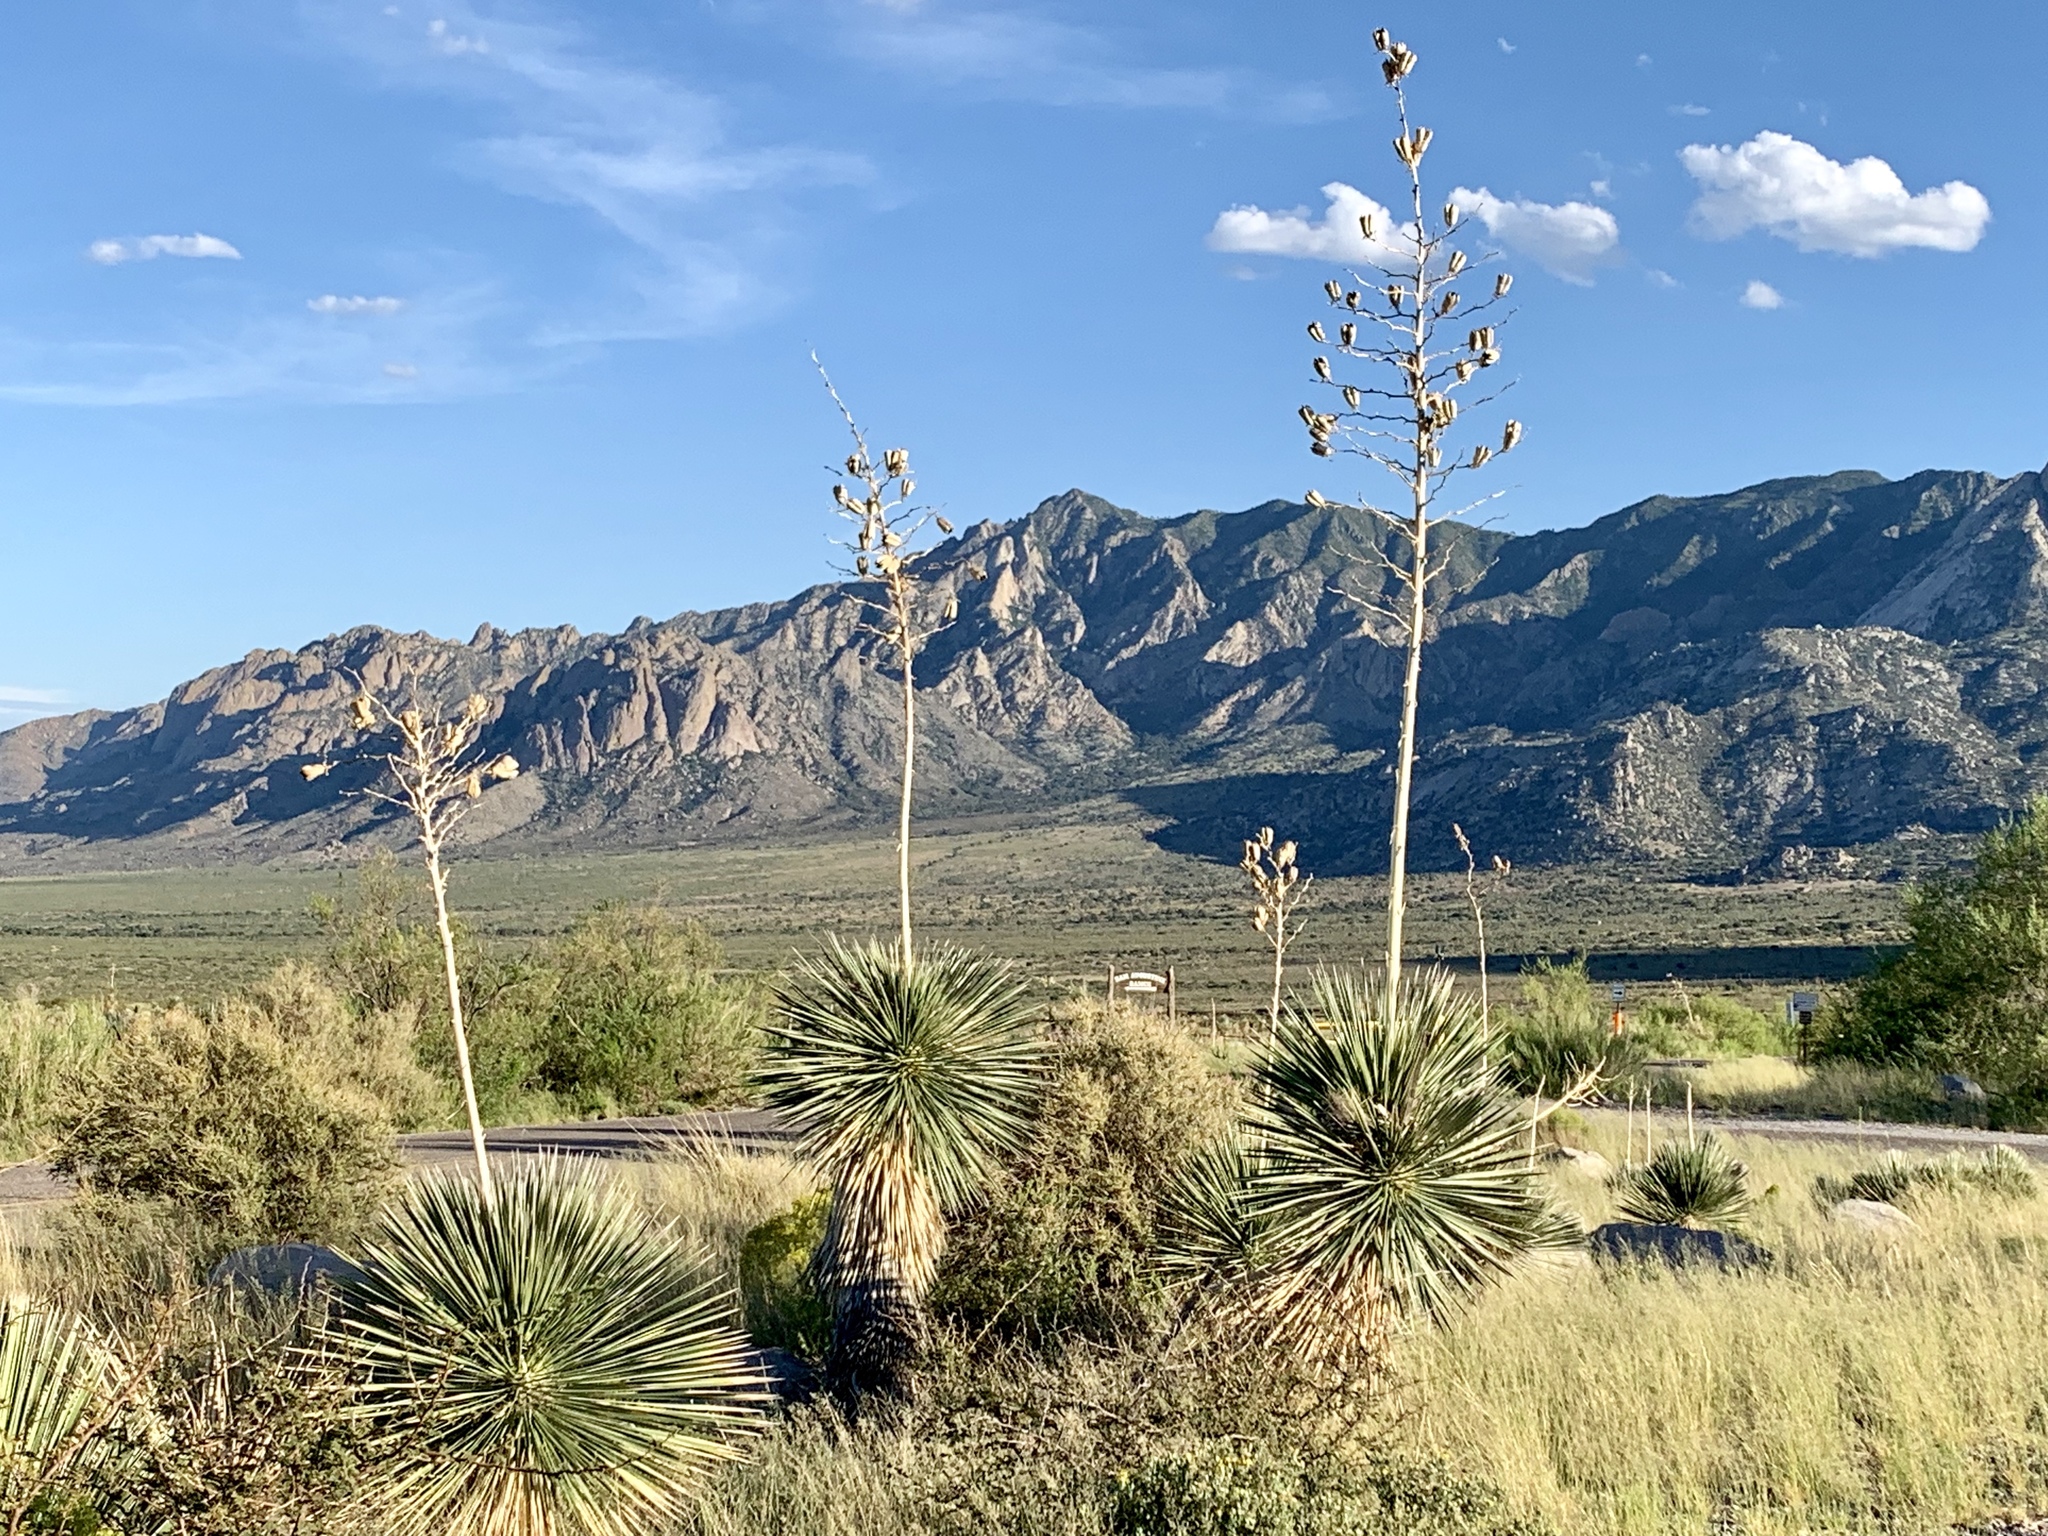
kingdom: Plantae
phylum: Tracheophyta
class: Liliopsida
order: Asparagales
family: Asparagaceae
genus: Yucca
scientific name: Yucca elata
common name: Palmella
